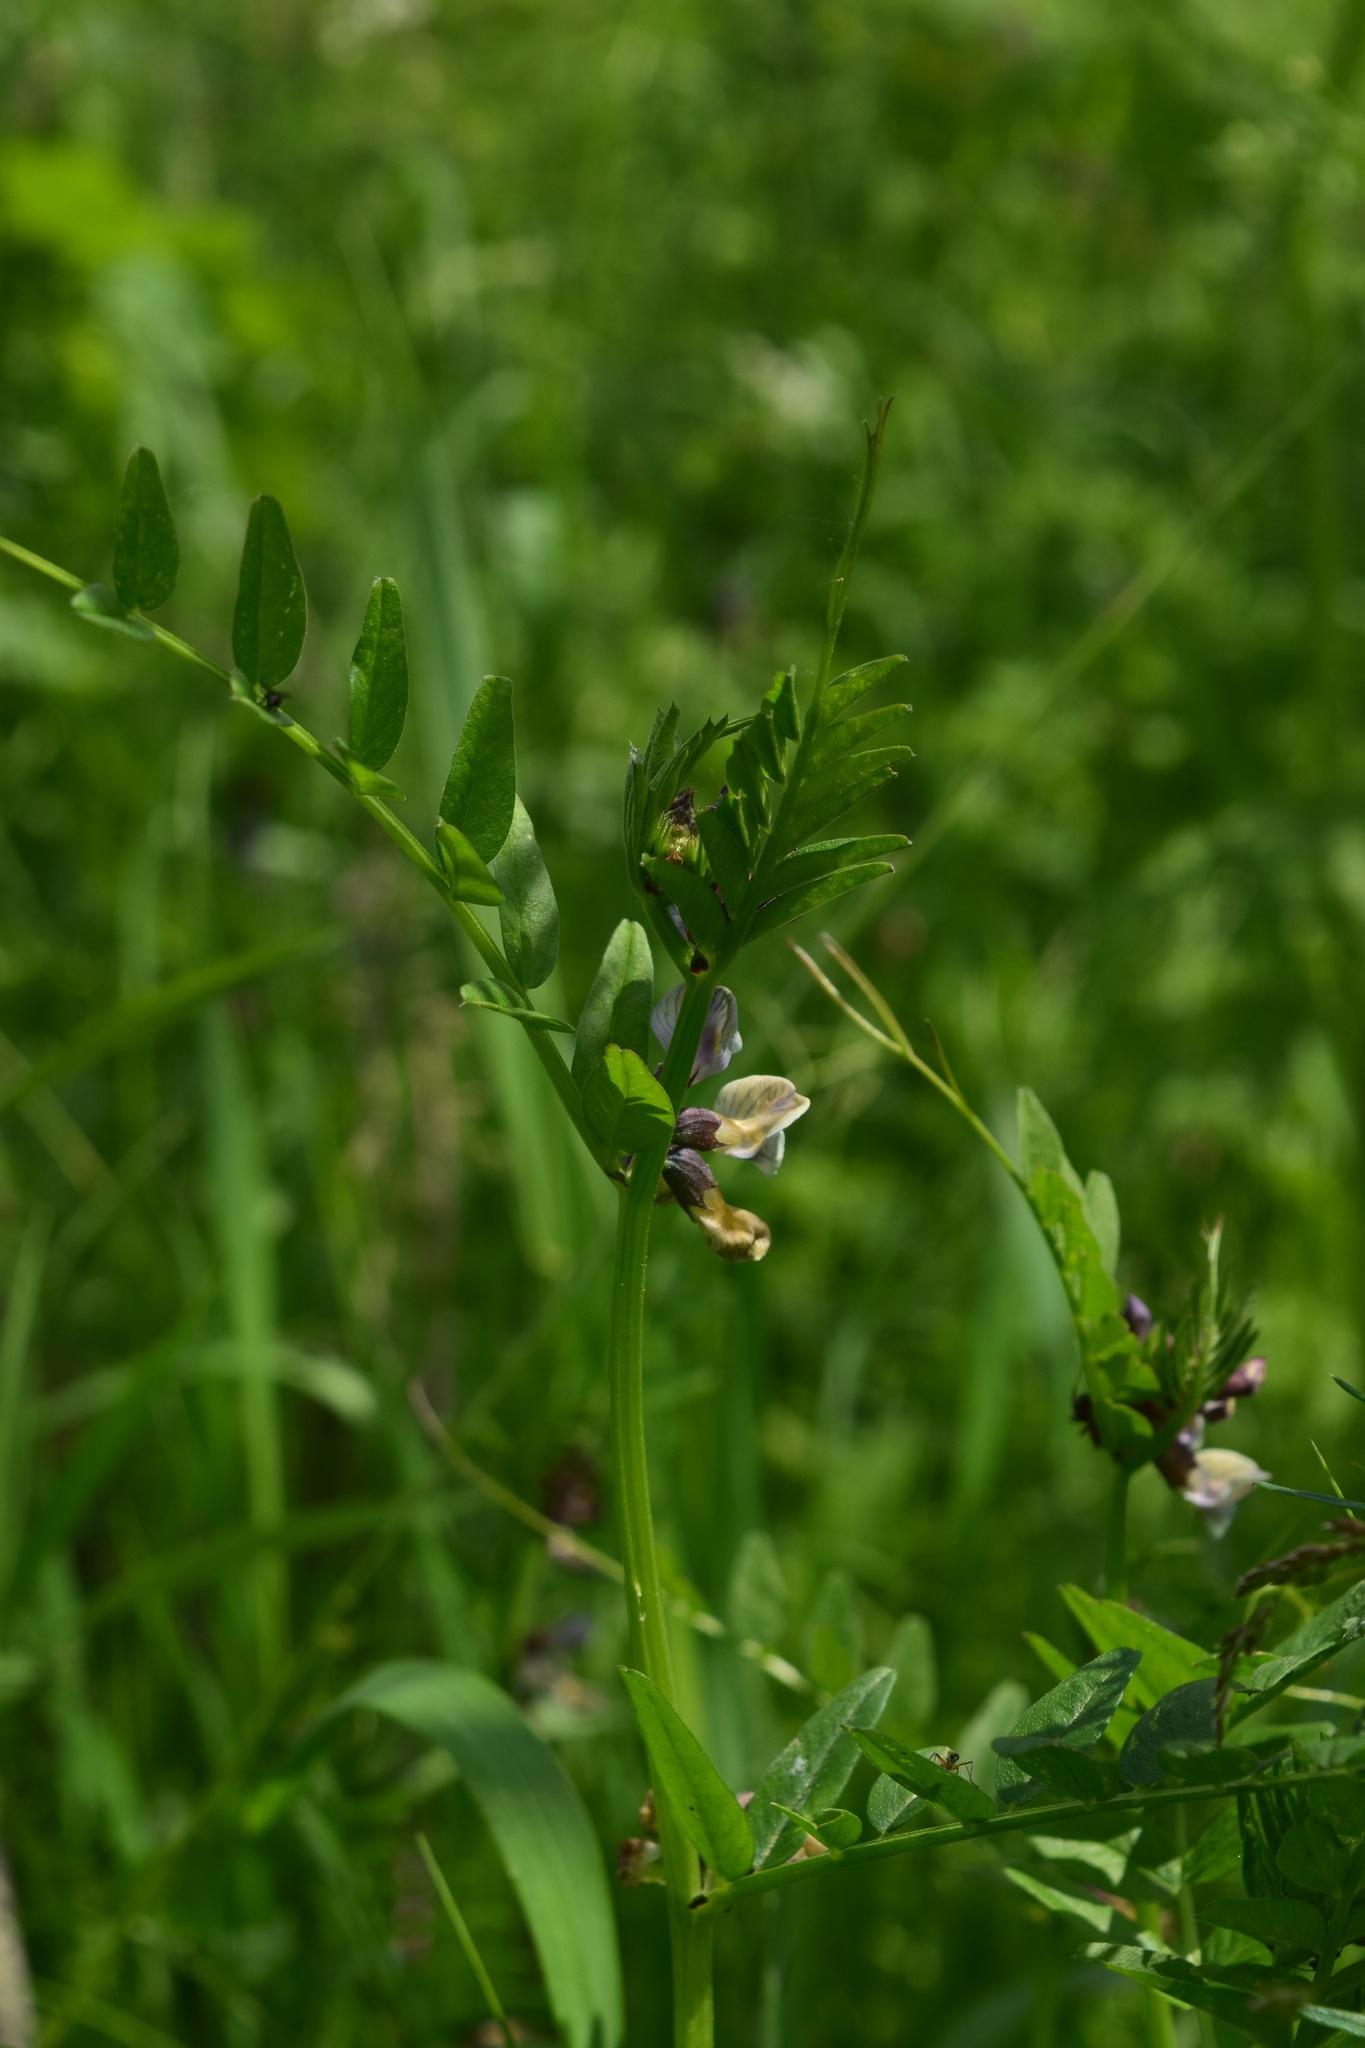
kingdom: Plantae
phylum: Tracheophyta
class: Magnoliopsida
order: Fabales
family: Fabaceae
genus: Vicia
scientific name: Vicia sepium
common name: Bush vetch
